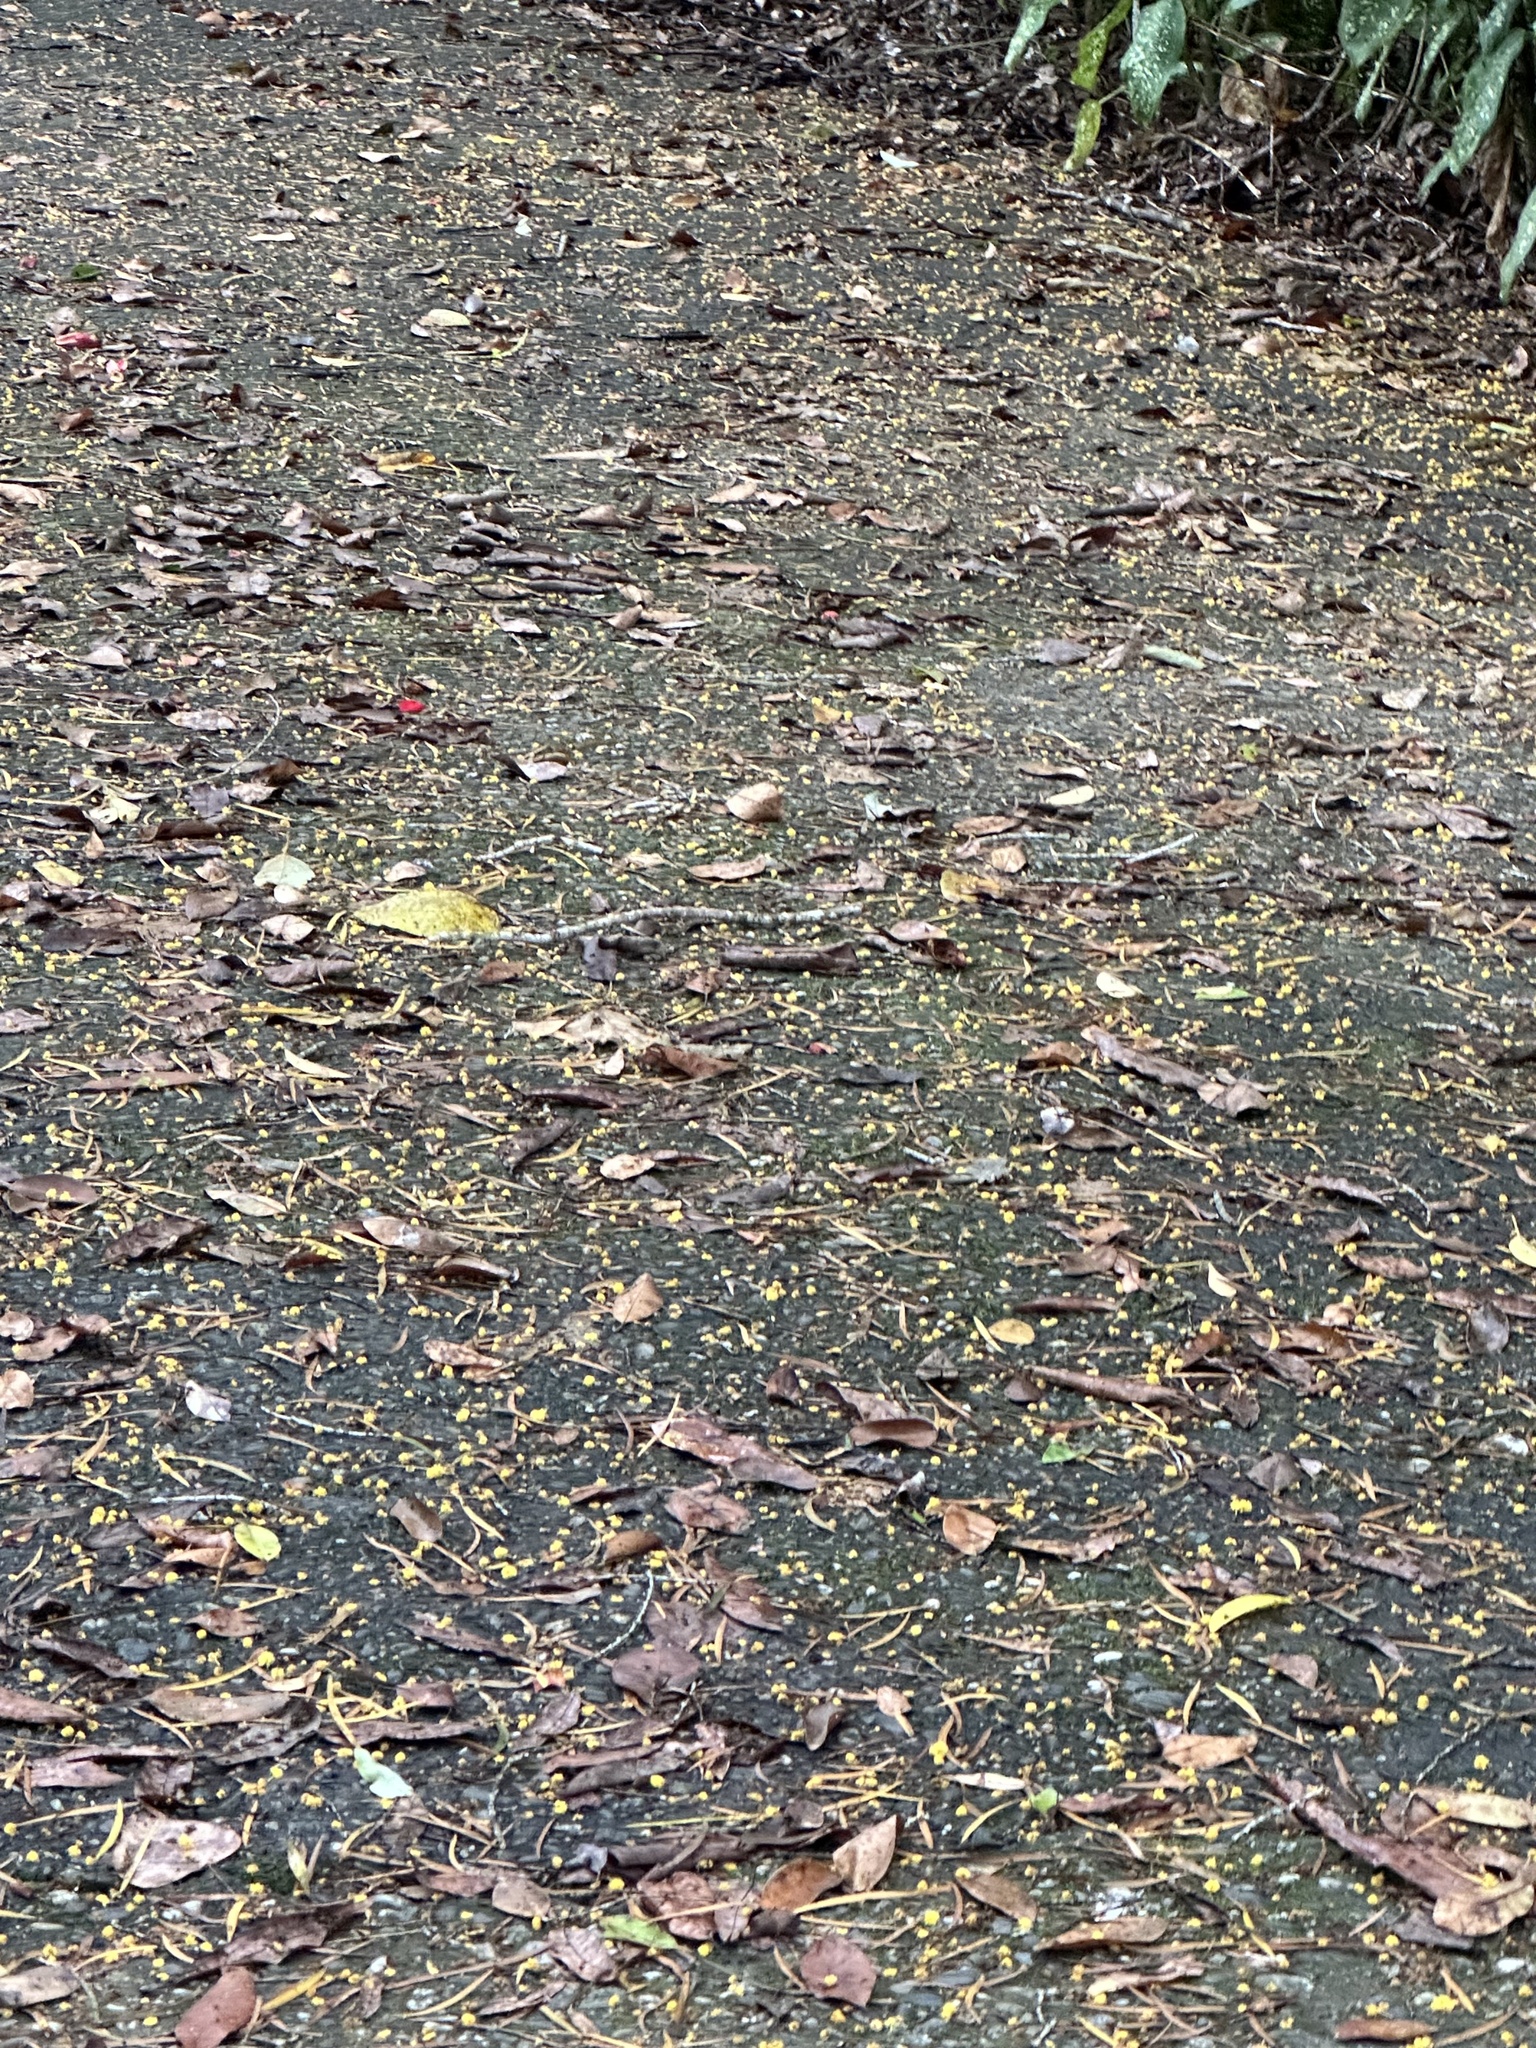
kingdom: Plantae
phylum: Tracheophyta
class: Magnoliopsida
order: Fabales
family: Fabaceae
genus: Acacia
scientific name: Acacia confusa
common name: Formosan koa
